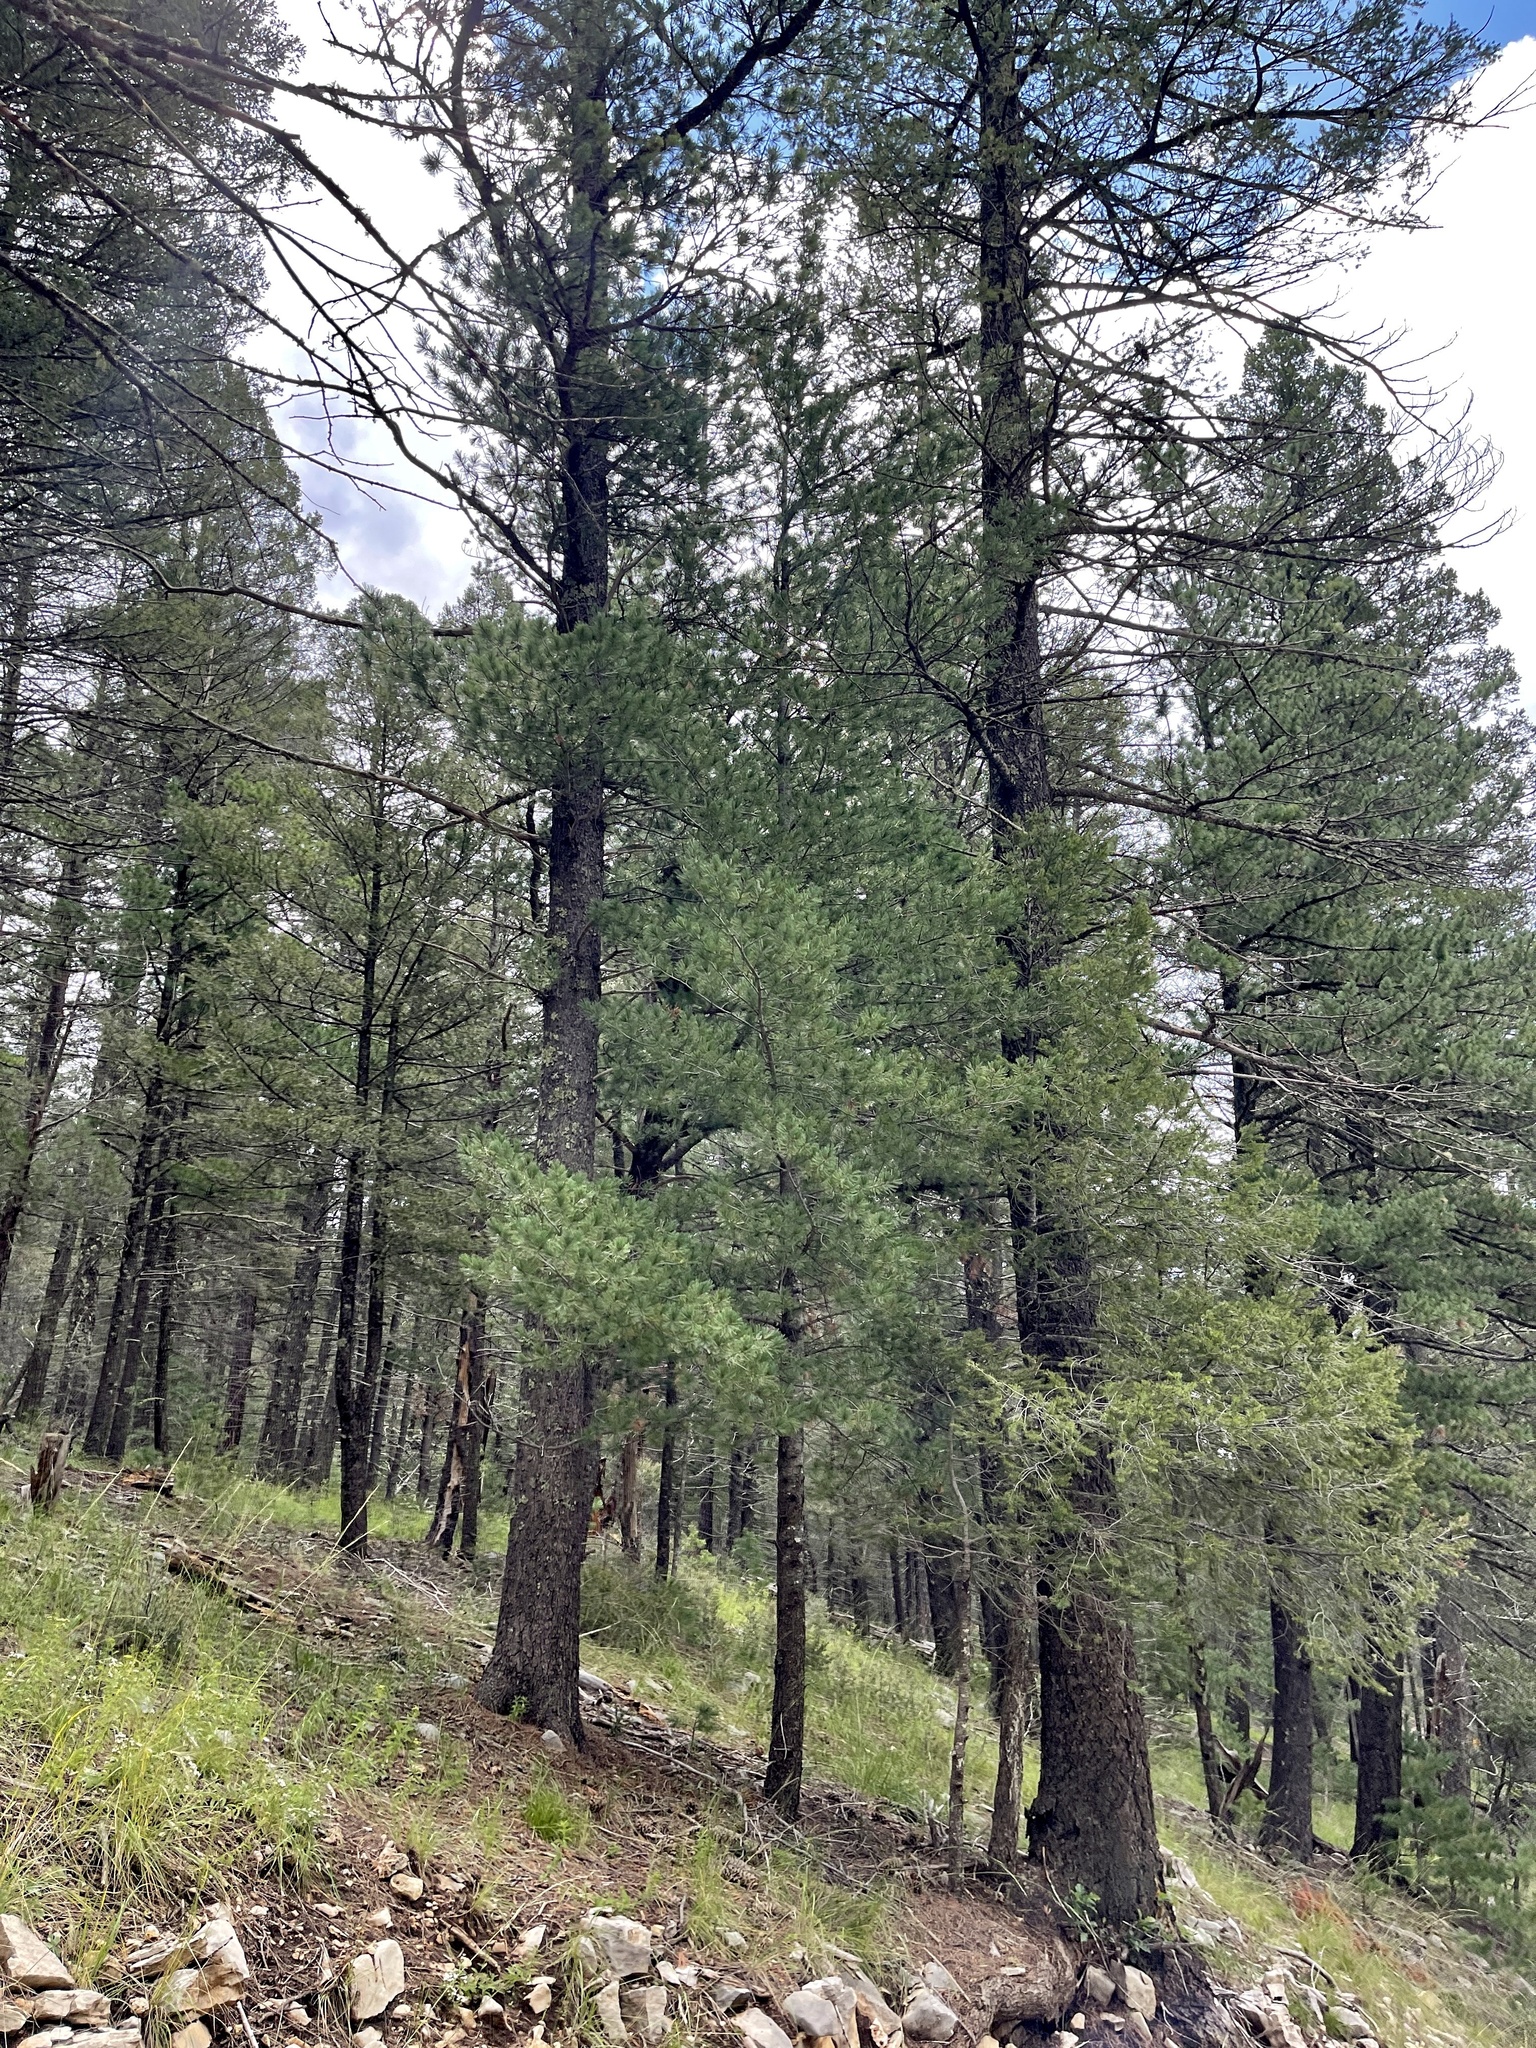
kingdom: Plantae
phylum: Tracheophyta
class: Pinopsida
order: Pinales
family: Pinaceae
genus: Pinus
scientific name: Pinus strobiformis
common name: Southwestern white pine
